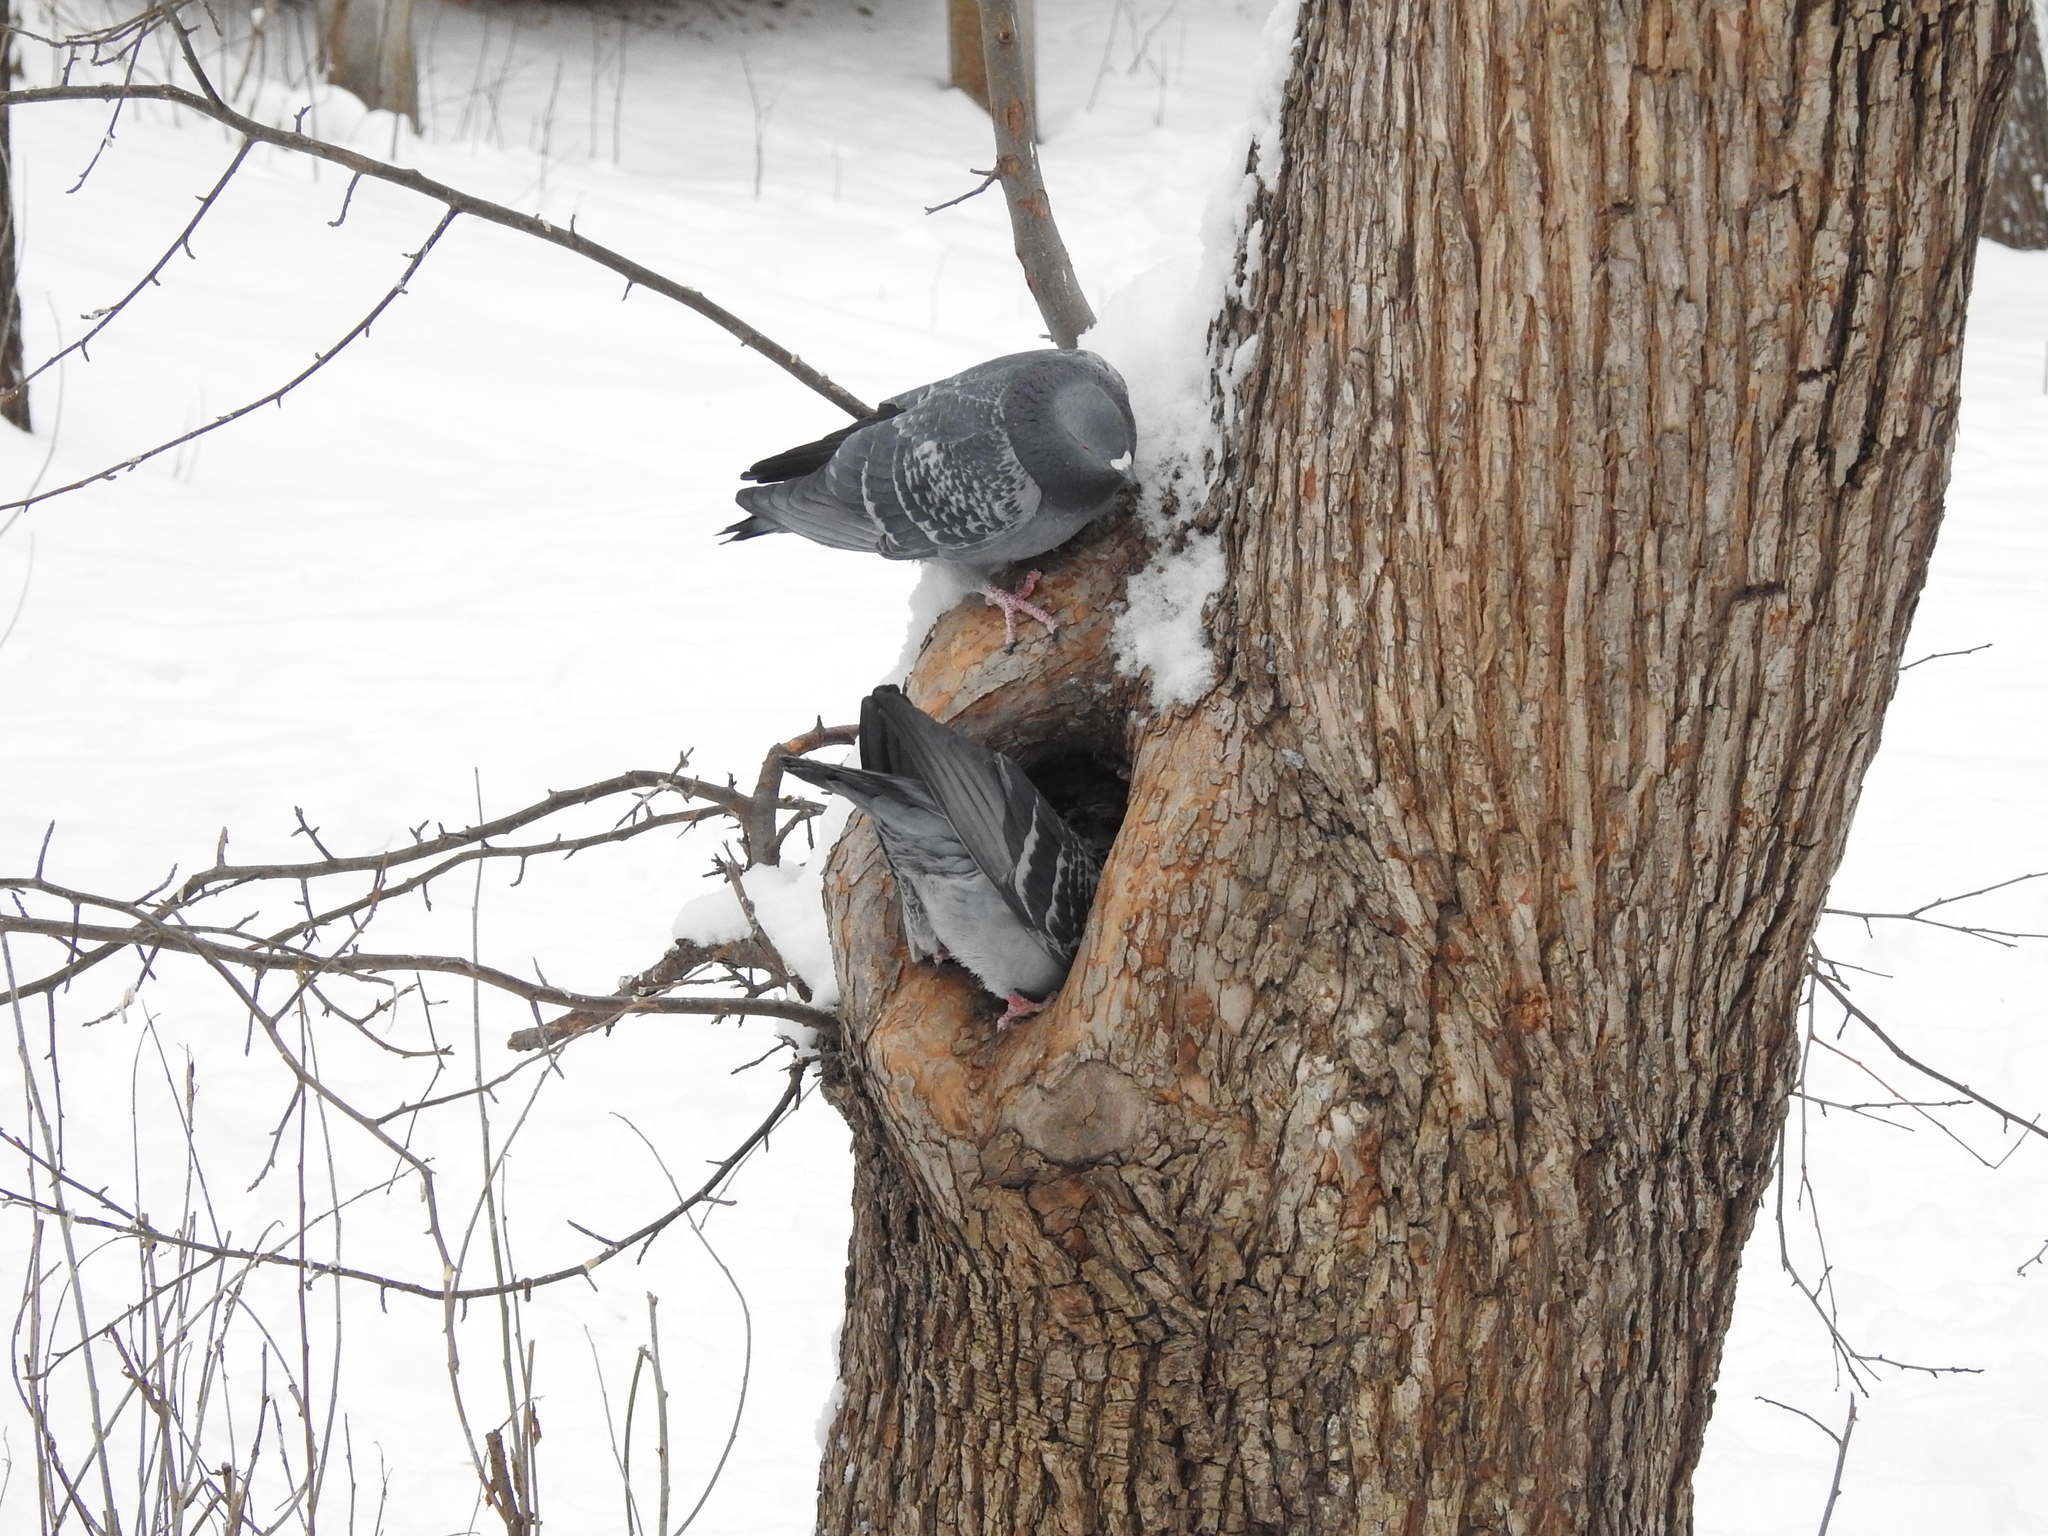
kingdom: Animalia
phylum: Chordata
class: Aves
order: Columbiformes
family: Columbidae
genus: Columba
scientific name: Columba livia
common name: Rock pigeon
